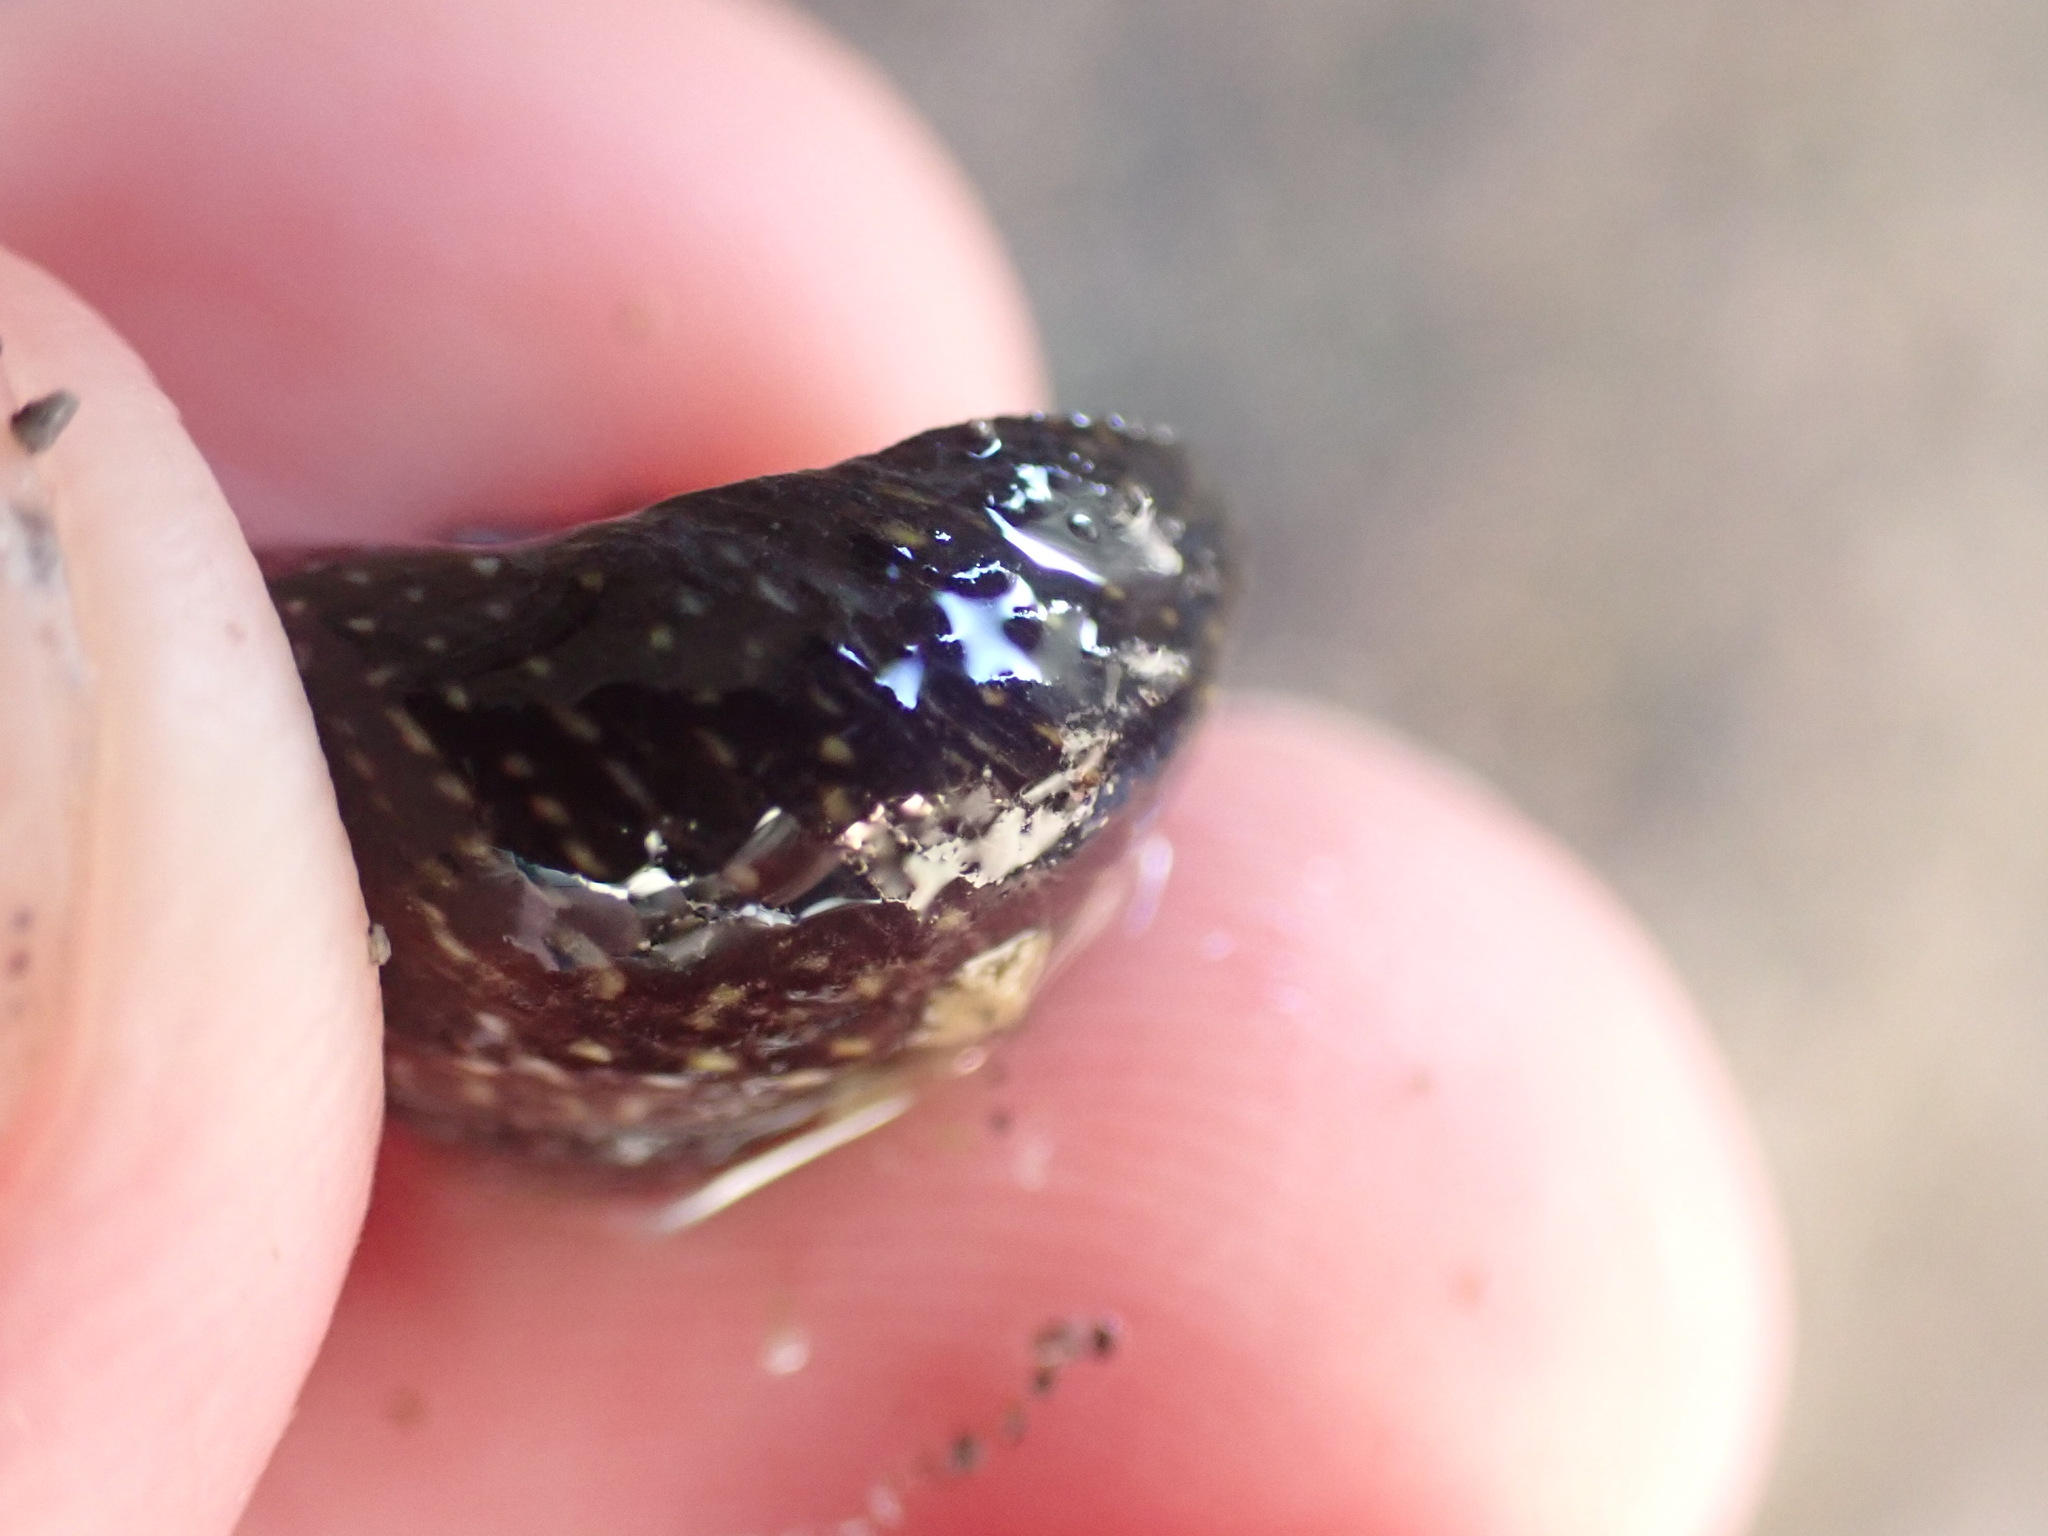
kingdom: Animalia
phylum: Mollusca
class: Gastropoda
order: Trochida
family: Trochidae
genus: Diloma
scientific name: Diloma aridum
